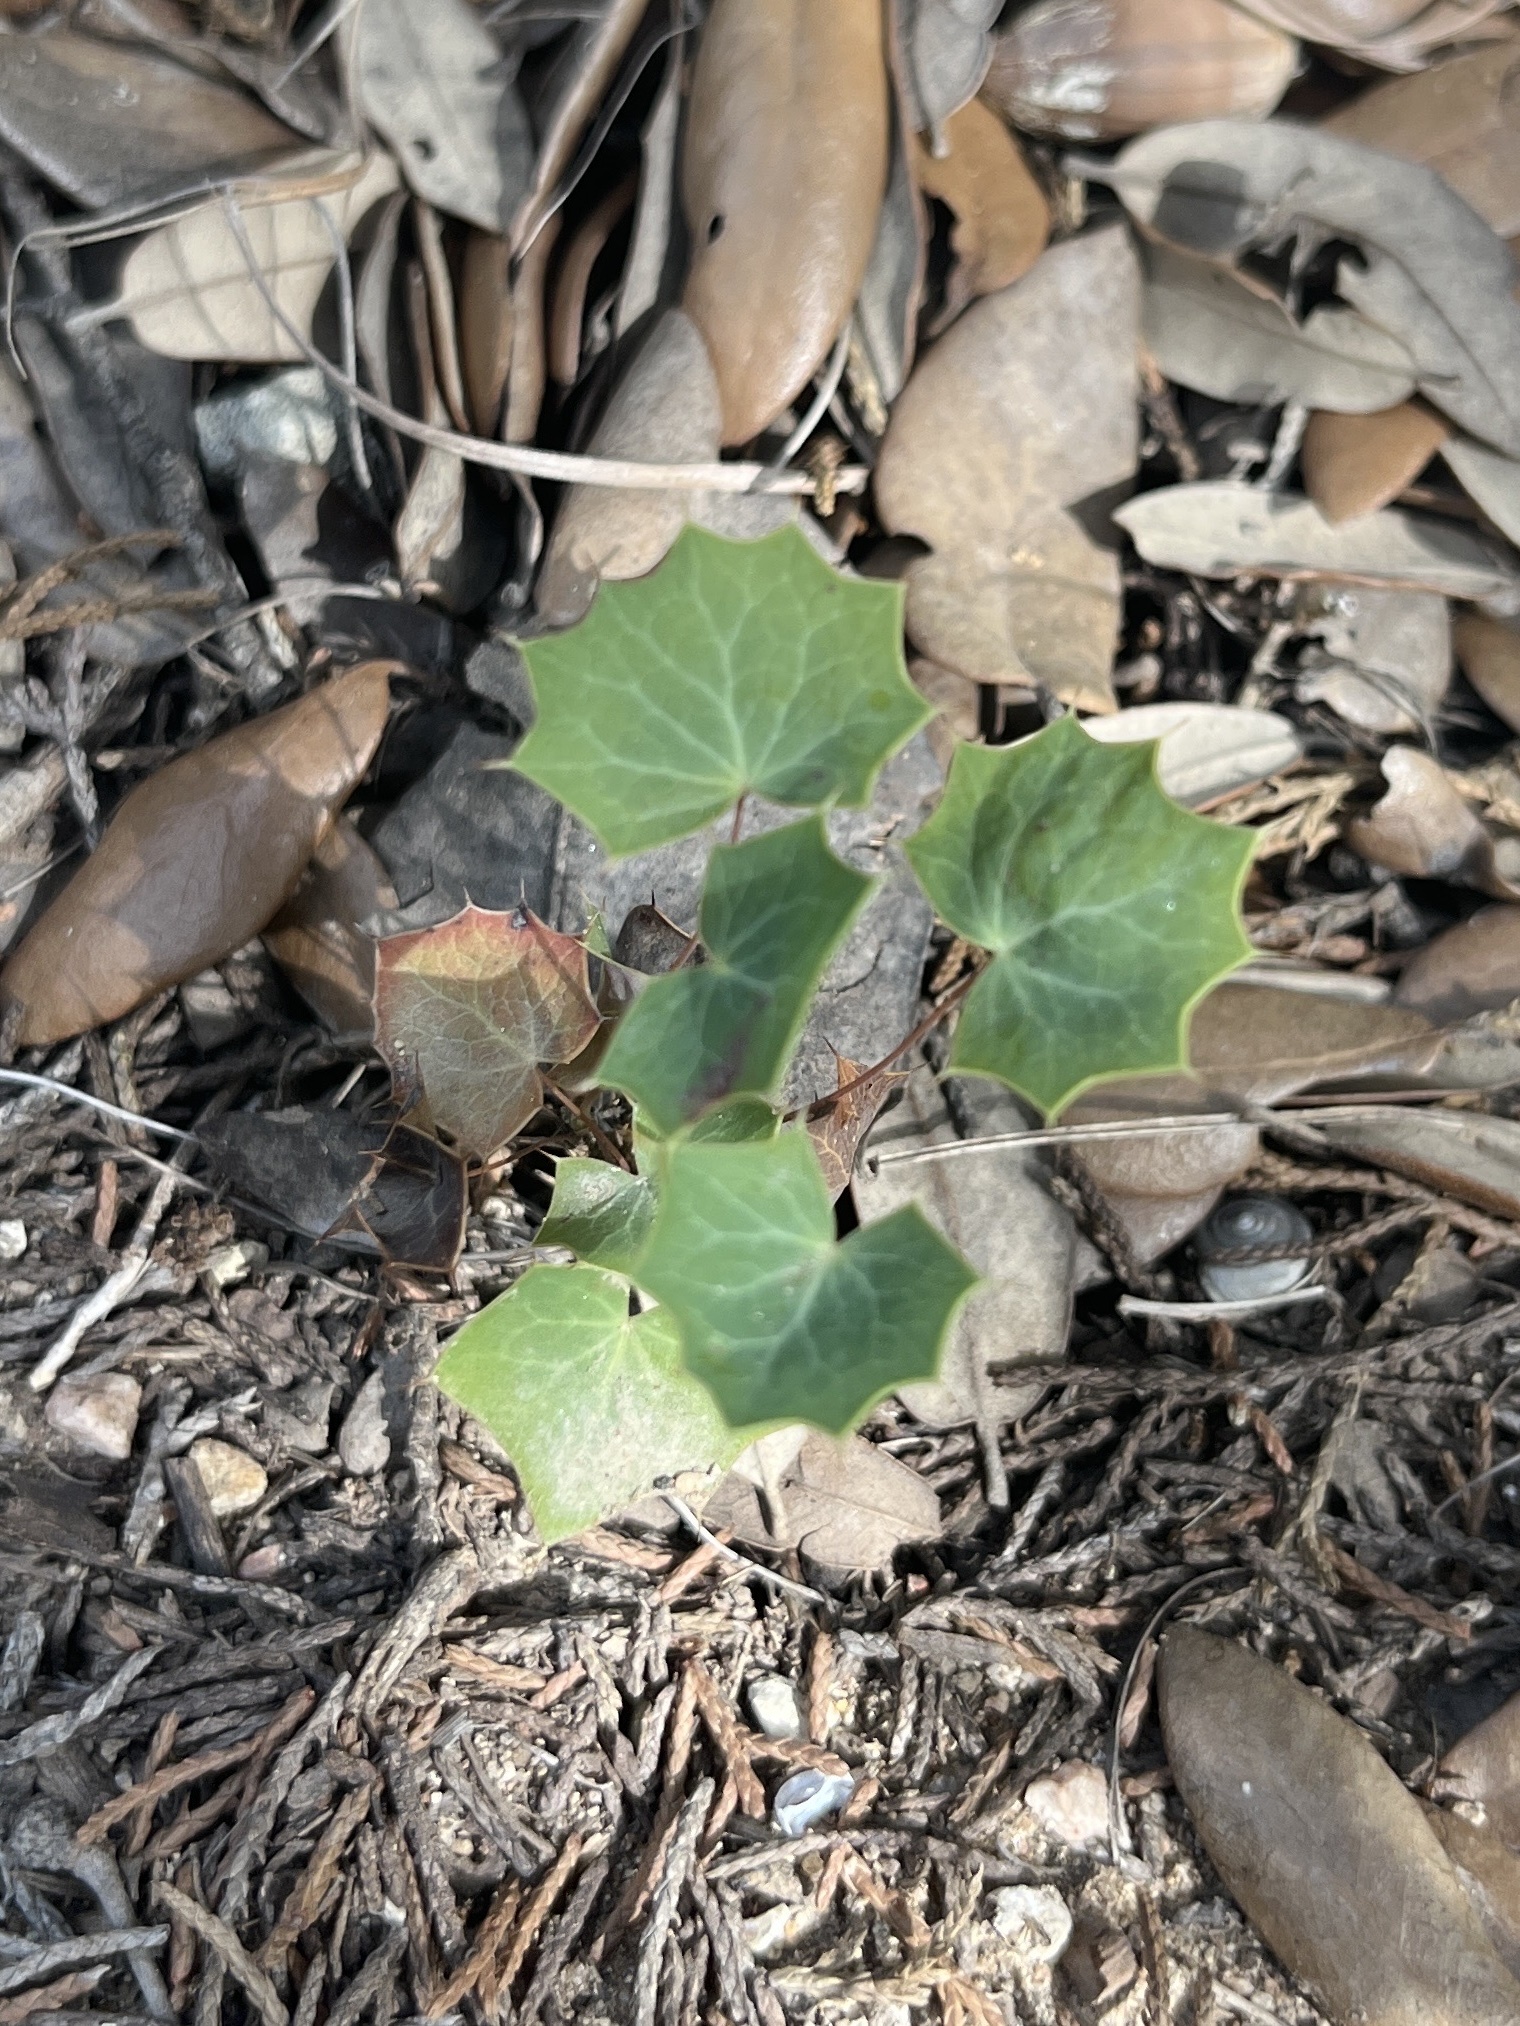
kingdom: Plantae
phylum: Tracheophyta
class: Magnoliopsida
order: Ranunculales
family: Berberidaceae
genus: Alloberberis
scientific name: Alloberberis trifoliolata
